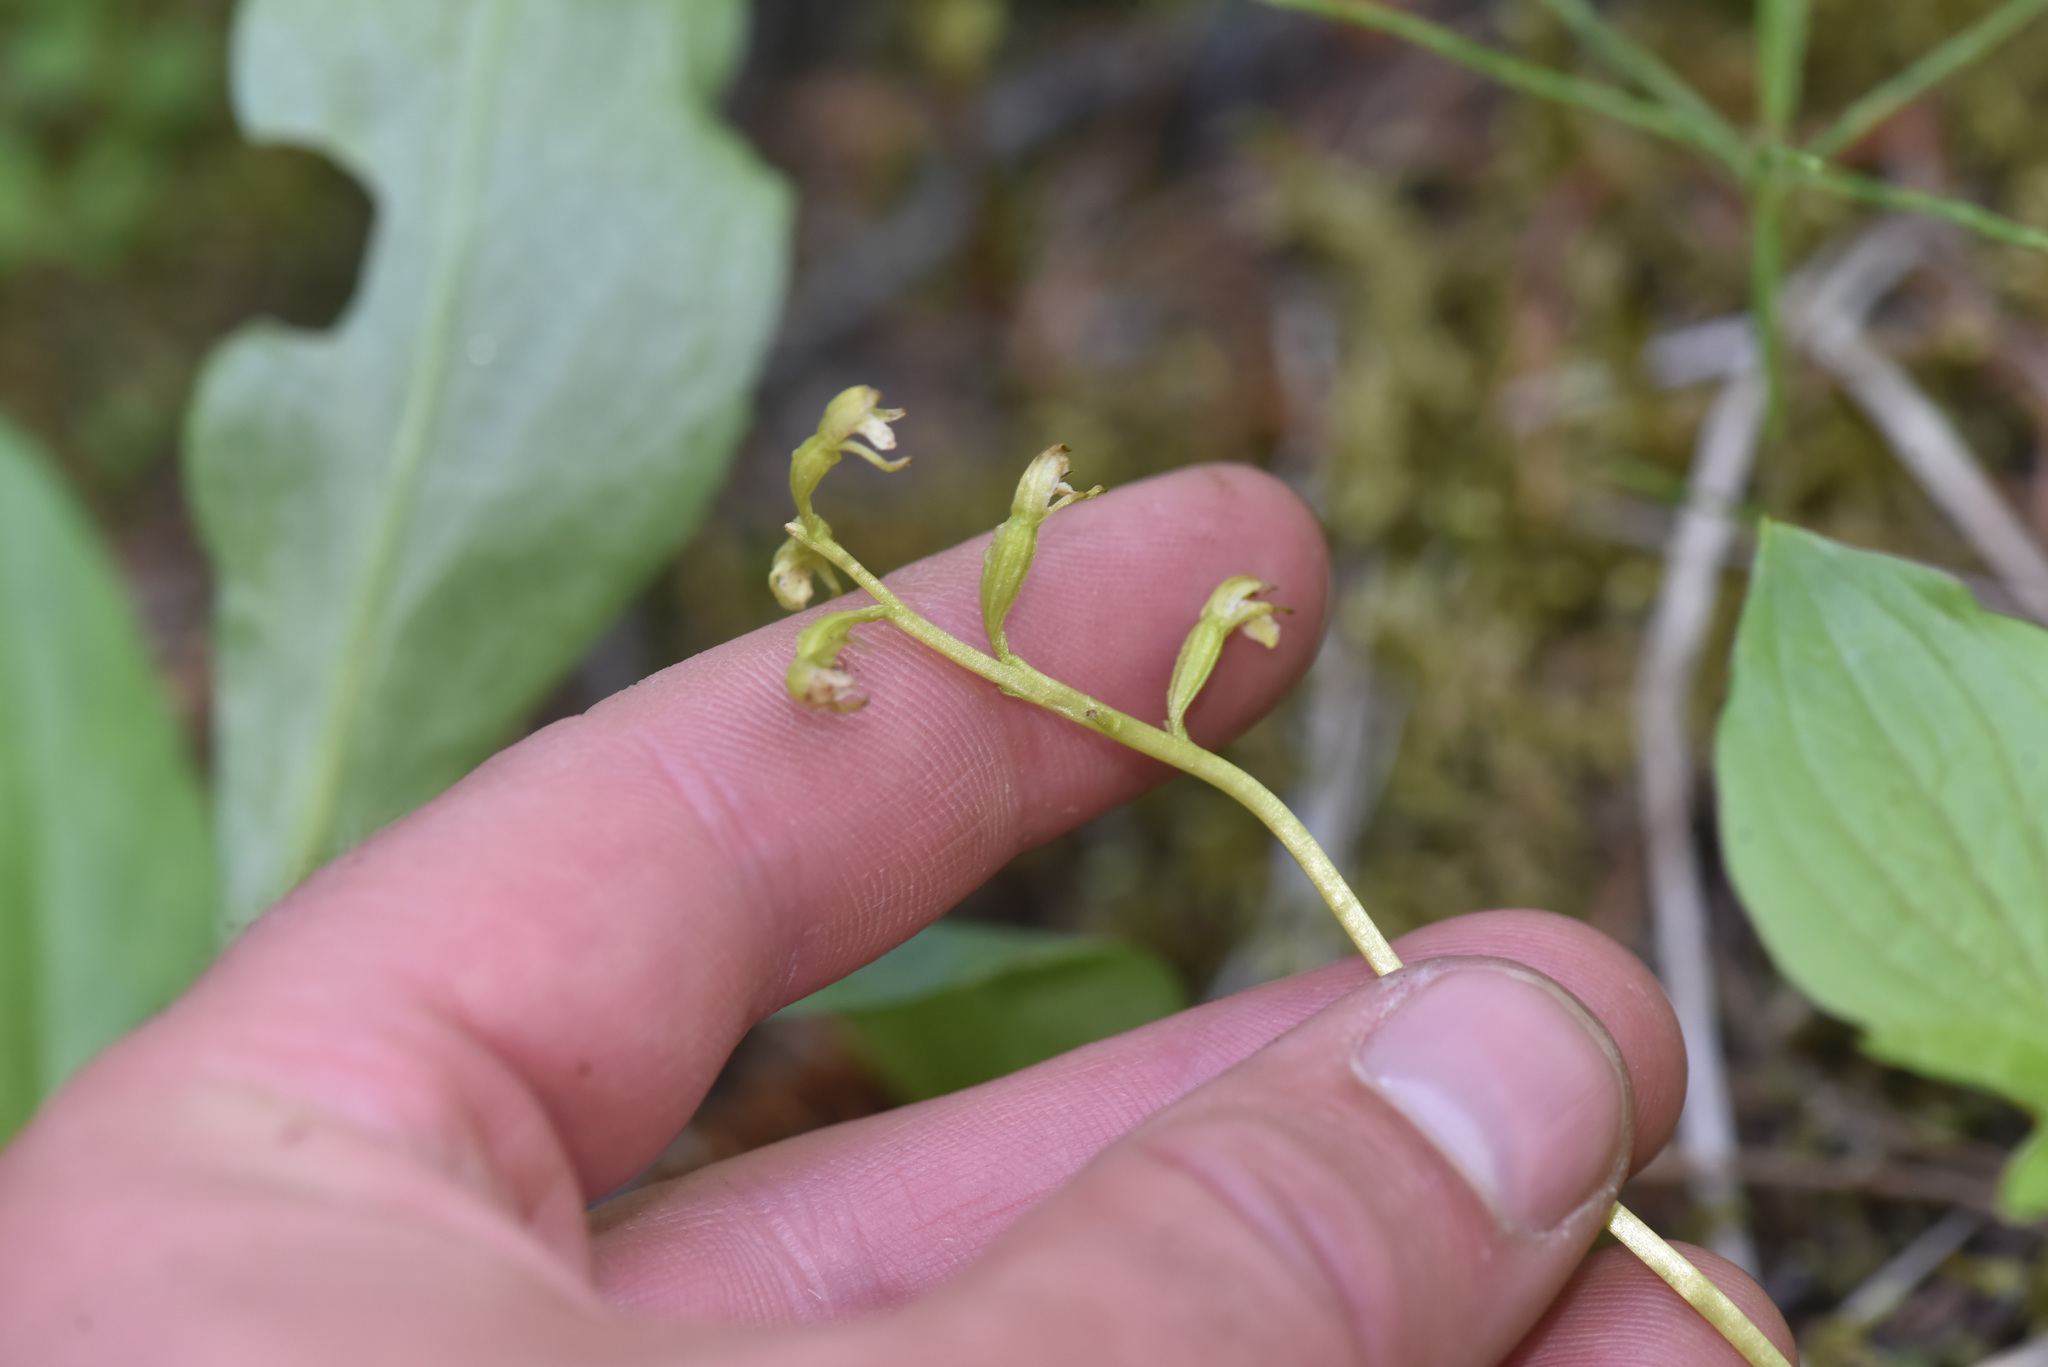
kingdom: Plantae
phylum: Tracheophyta
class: Liliopsida
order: Asparagales
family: Orchidaceae
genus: Corallorhiza
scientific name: Corallorhiza trifida
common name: Yellow coralroot
